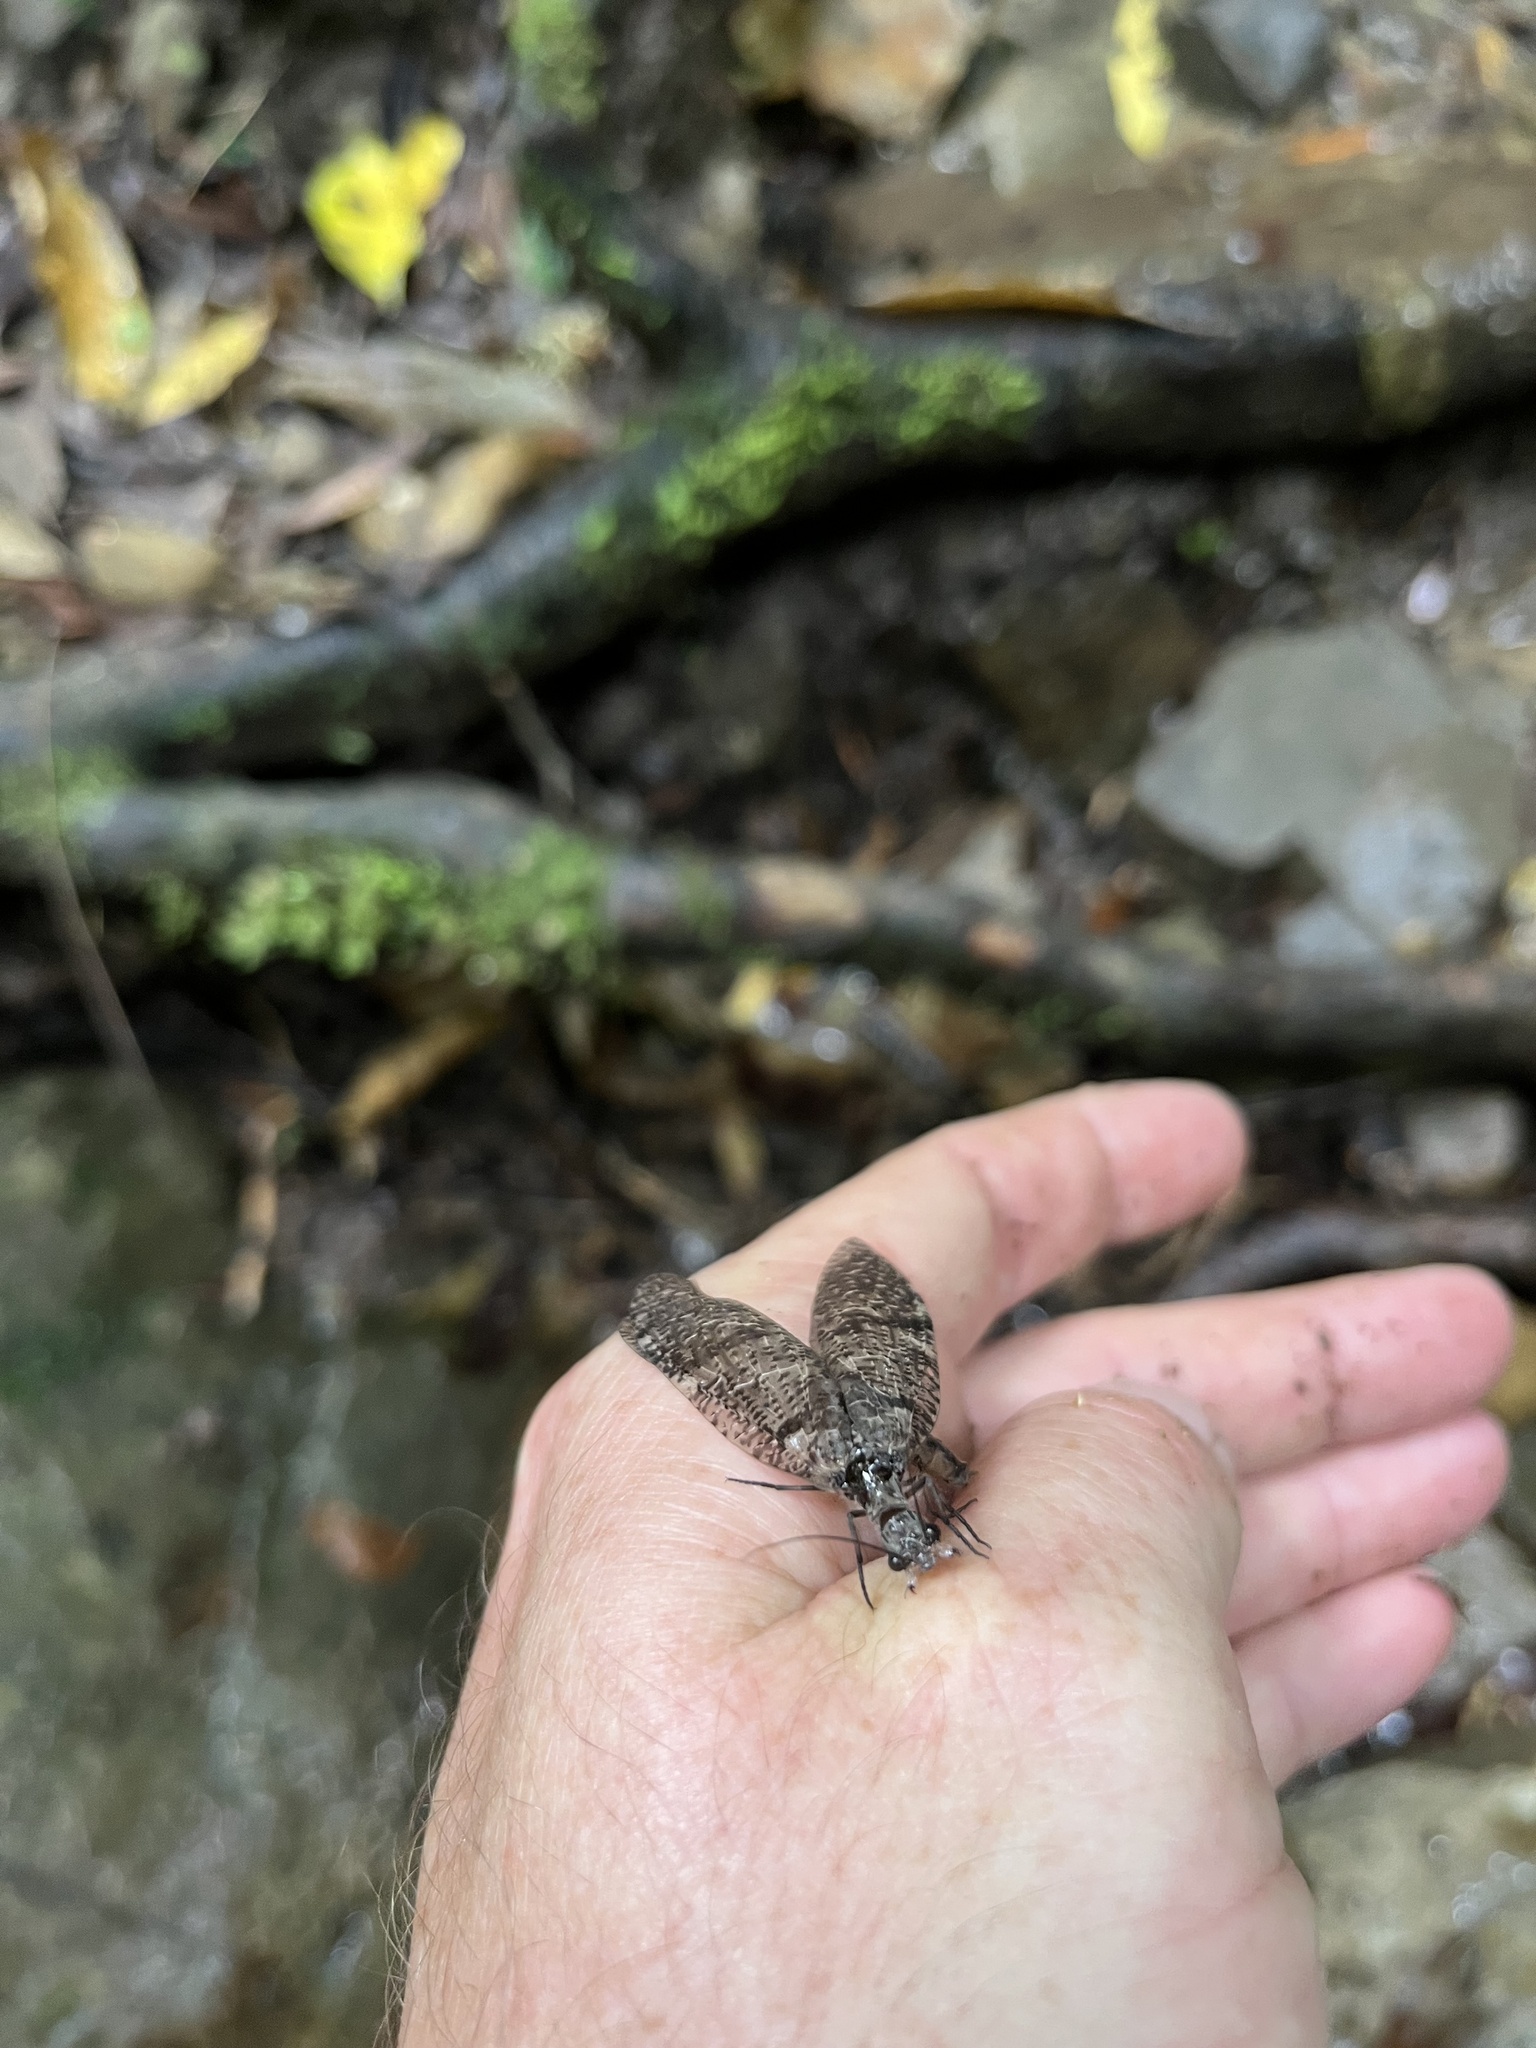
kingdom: Animalia
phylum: Arthropoda
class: Insecta
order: Megaloptera
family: Corydalidae
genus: Archichauliodes
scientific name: Archichauliodes diversus
